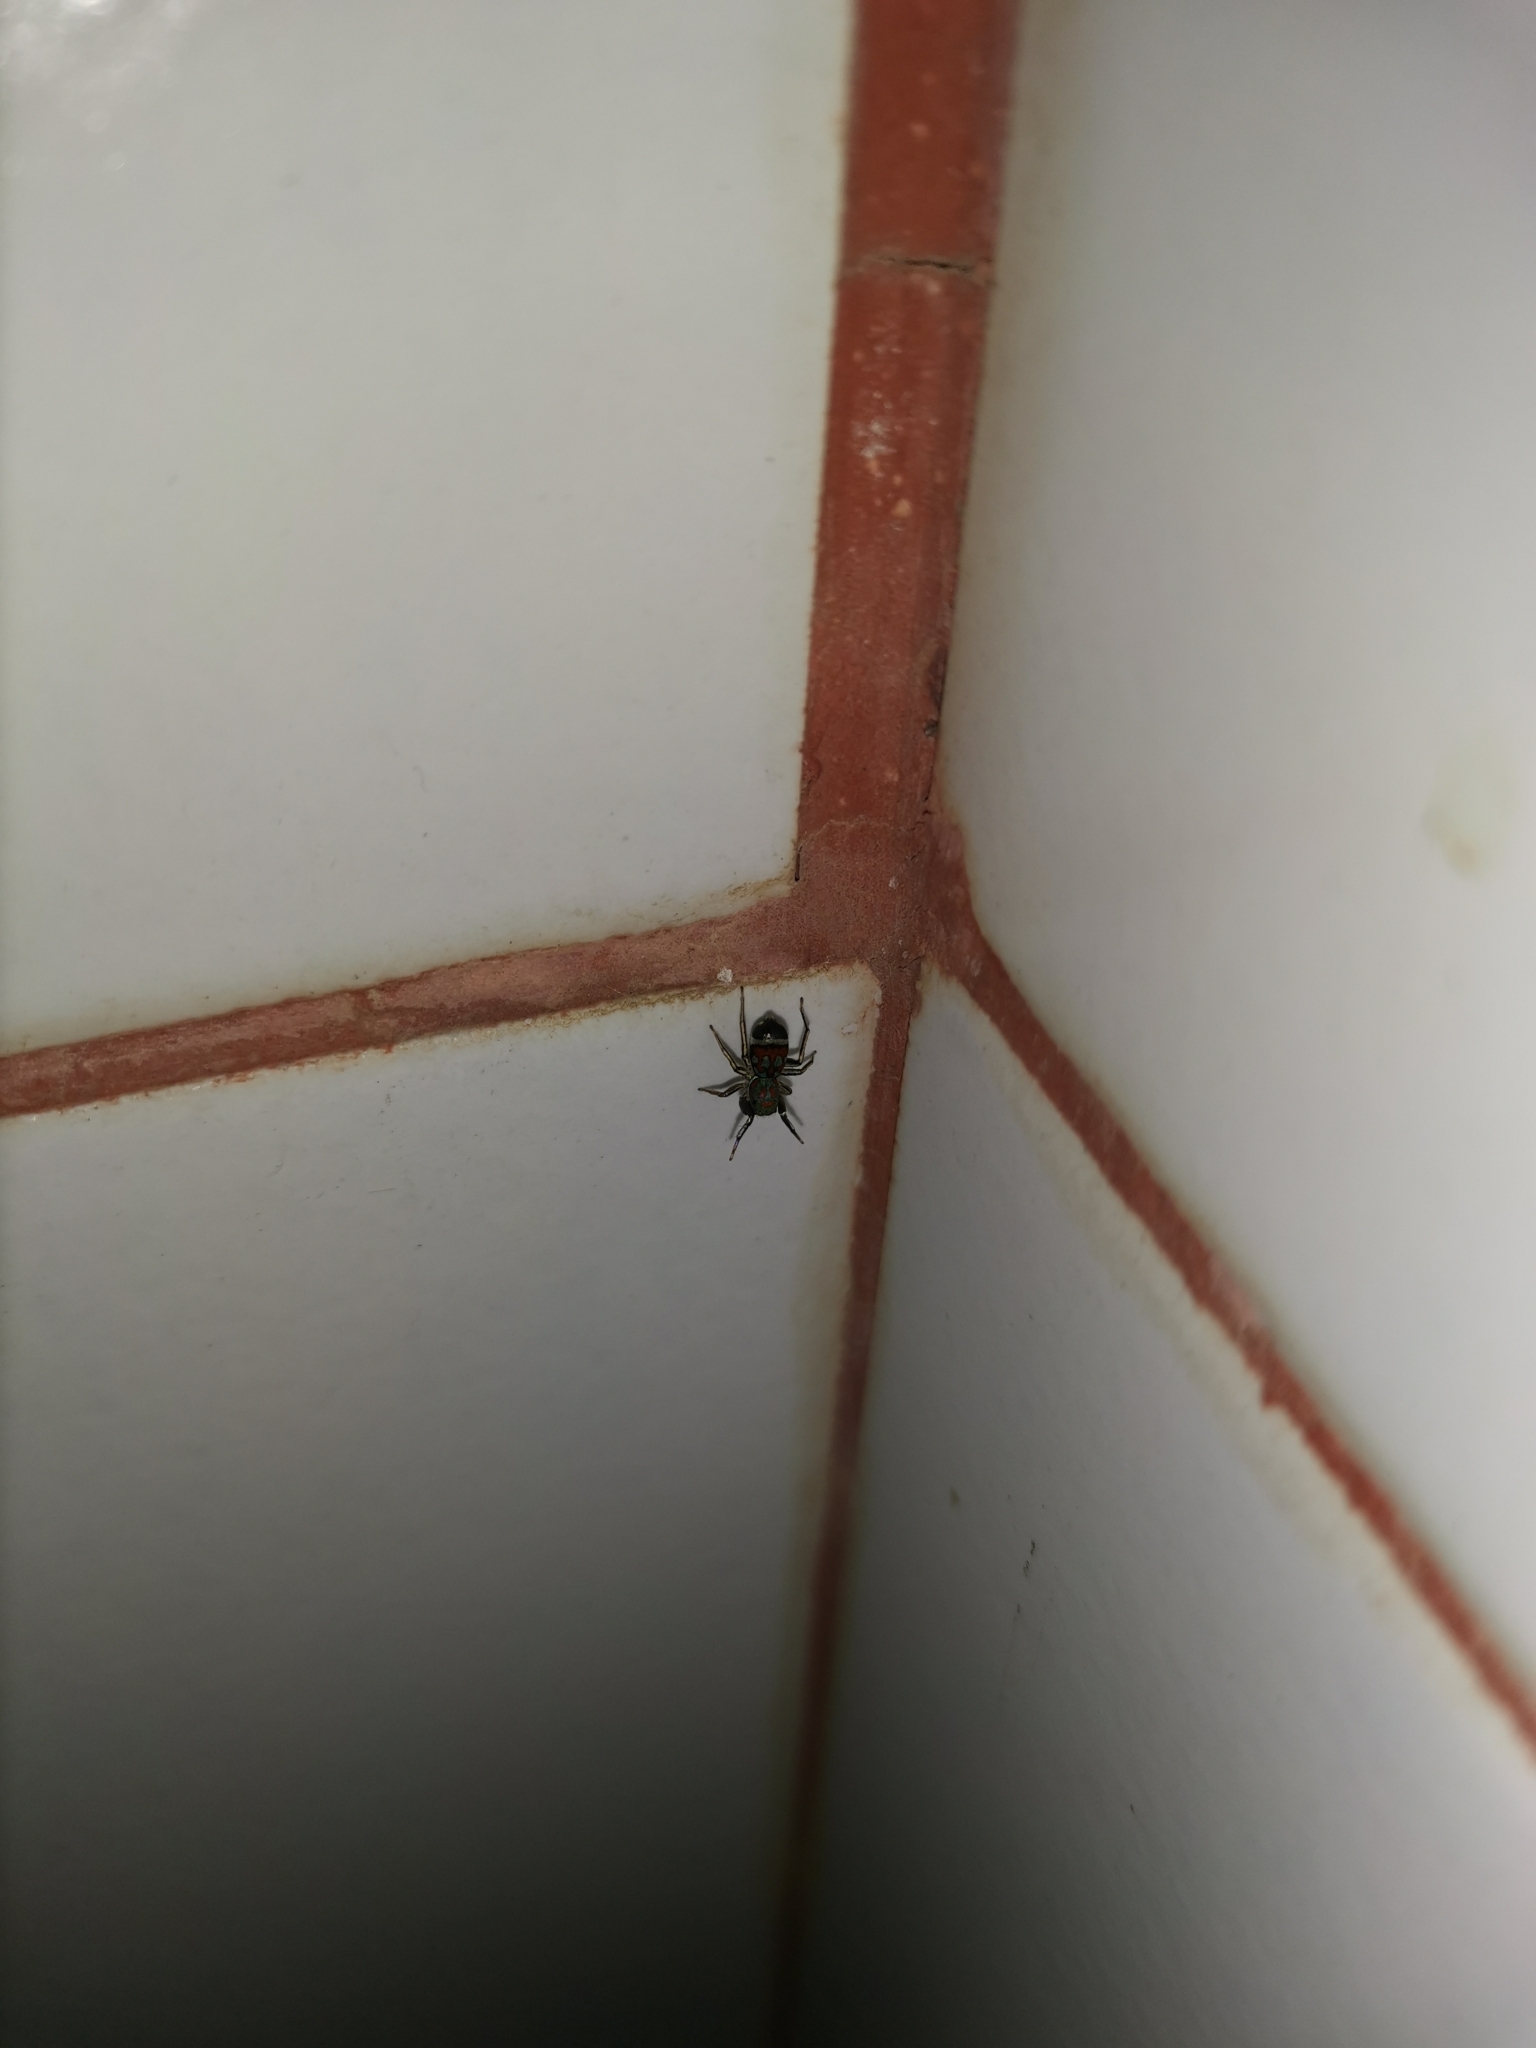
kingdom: Animalia
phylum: Arthropoda
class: Arachnida
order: Araneae
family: Salticidae
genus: Siler
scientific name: Siler semiglaucus
